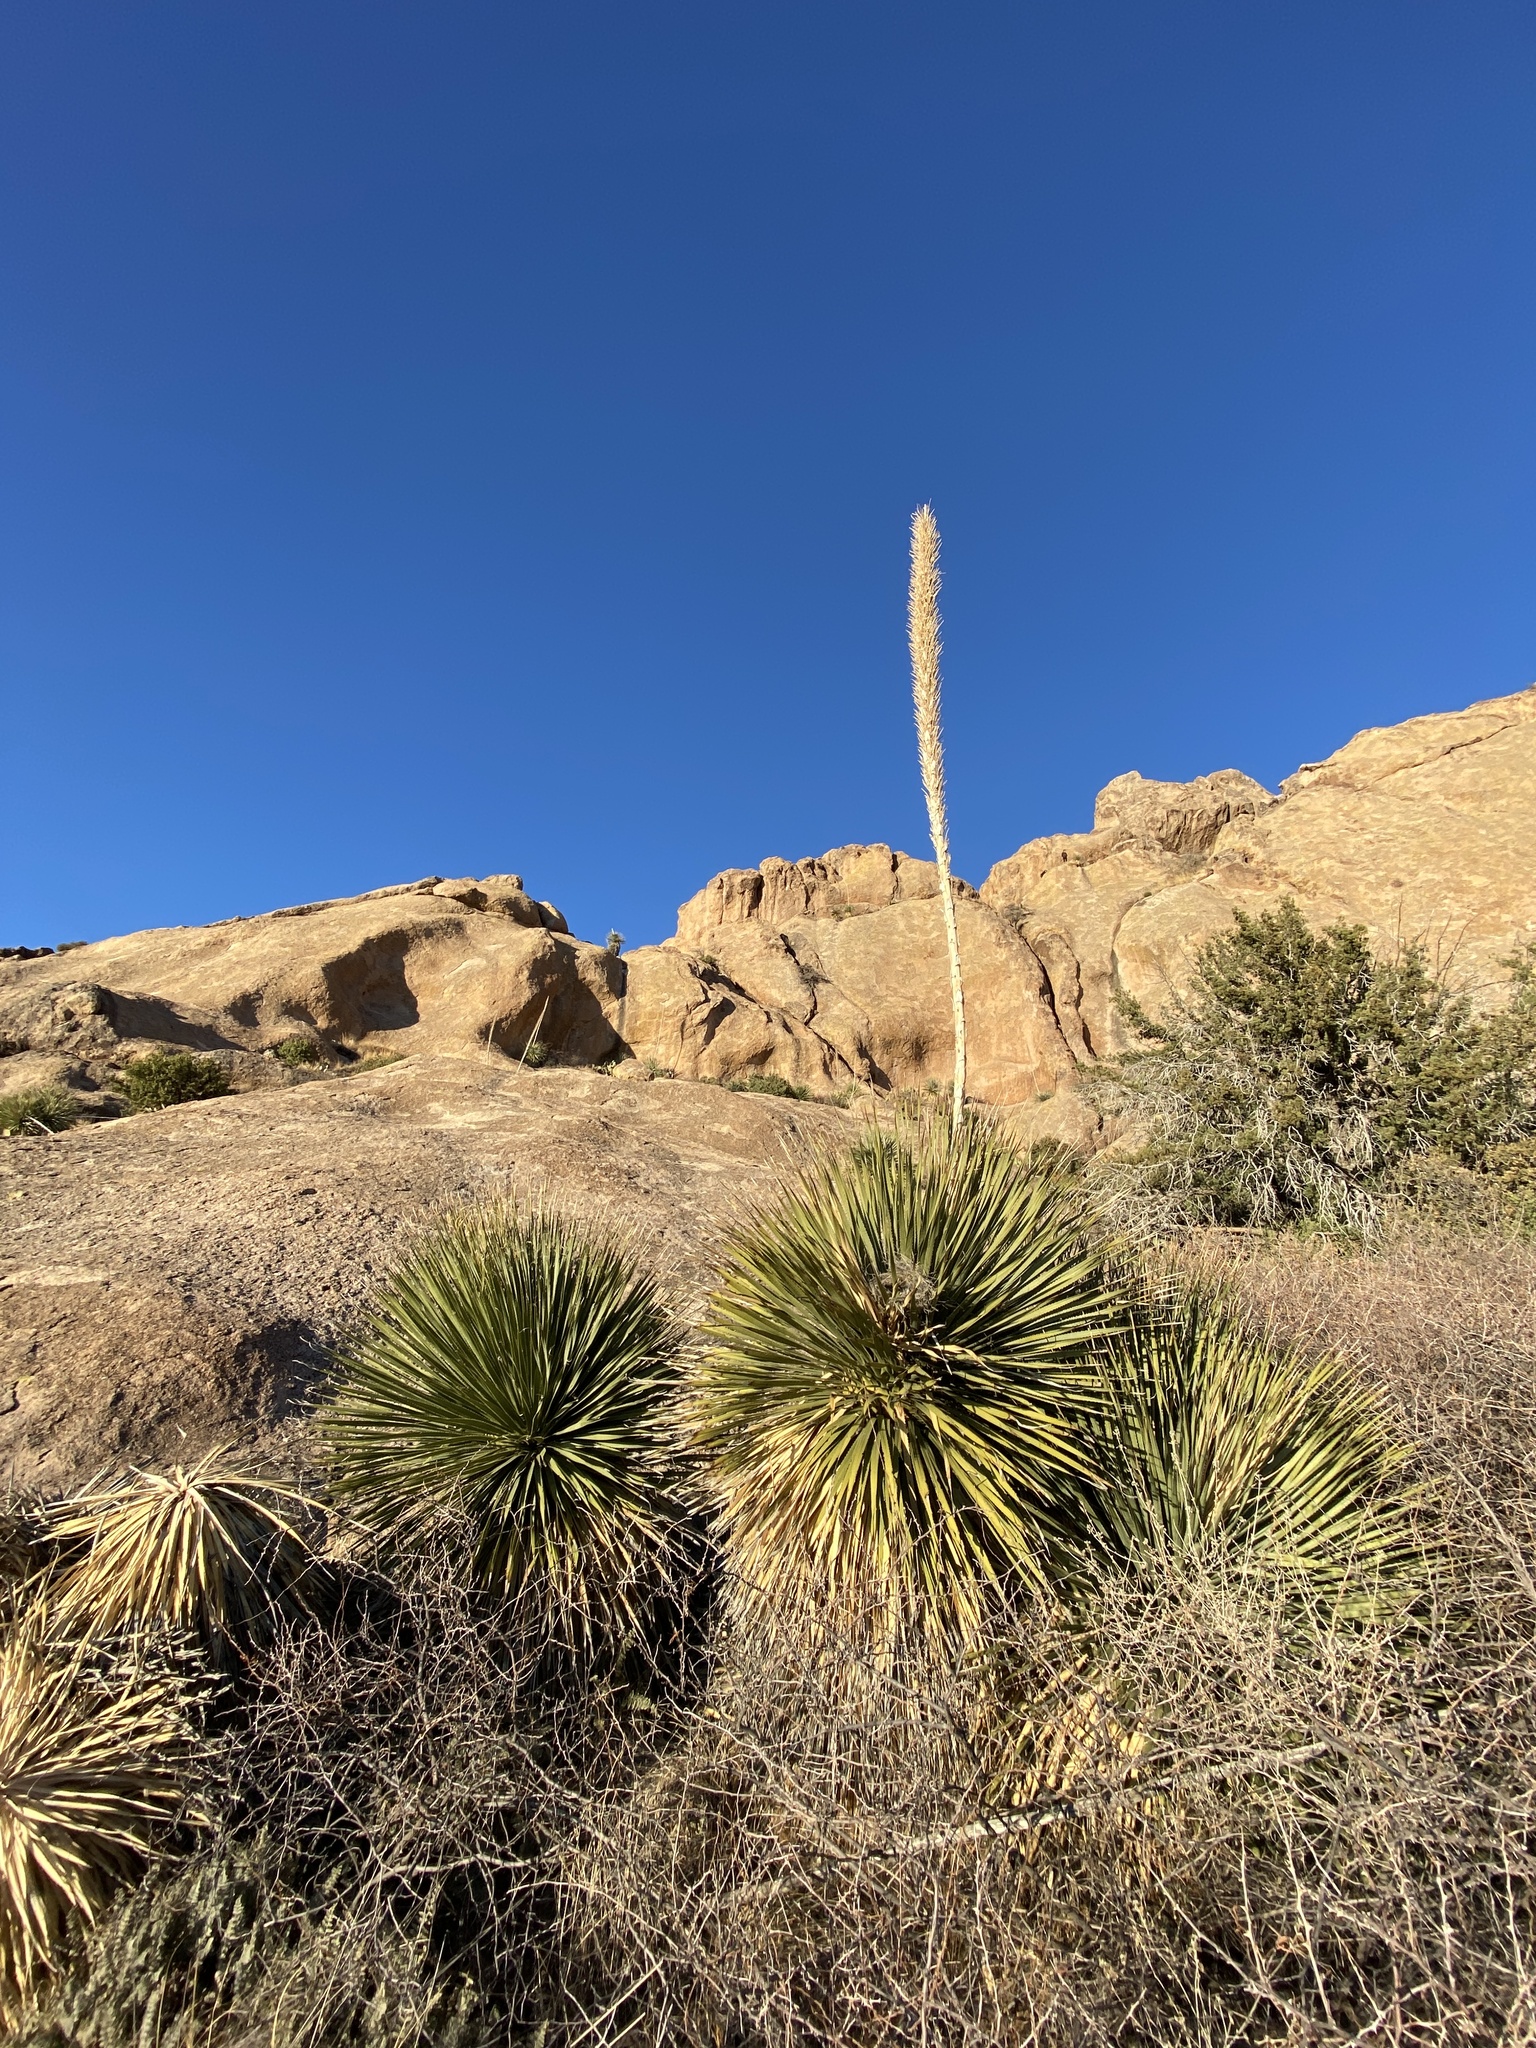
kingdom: Plantae
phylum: Tracheophyta
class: Liliopsida
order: Asparagales
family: Asparagaceae
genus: Dasylirion
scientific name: Dasylirion wheeleri
